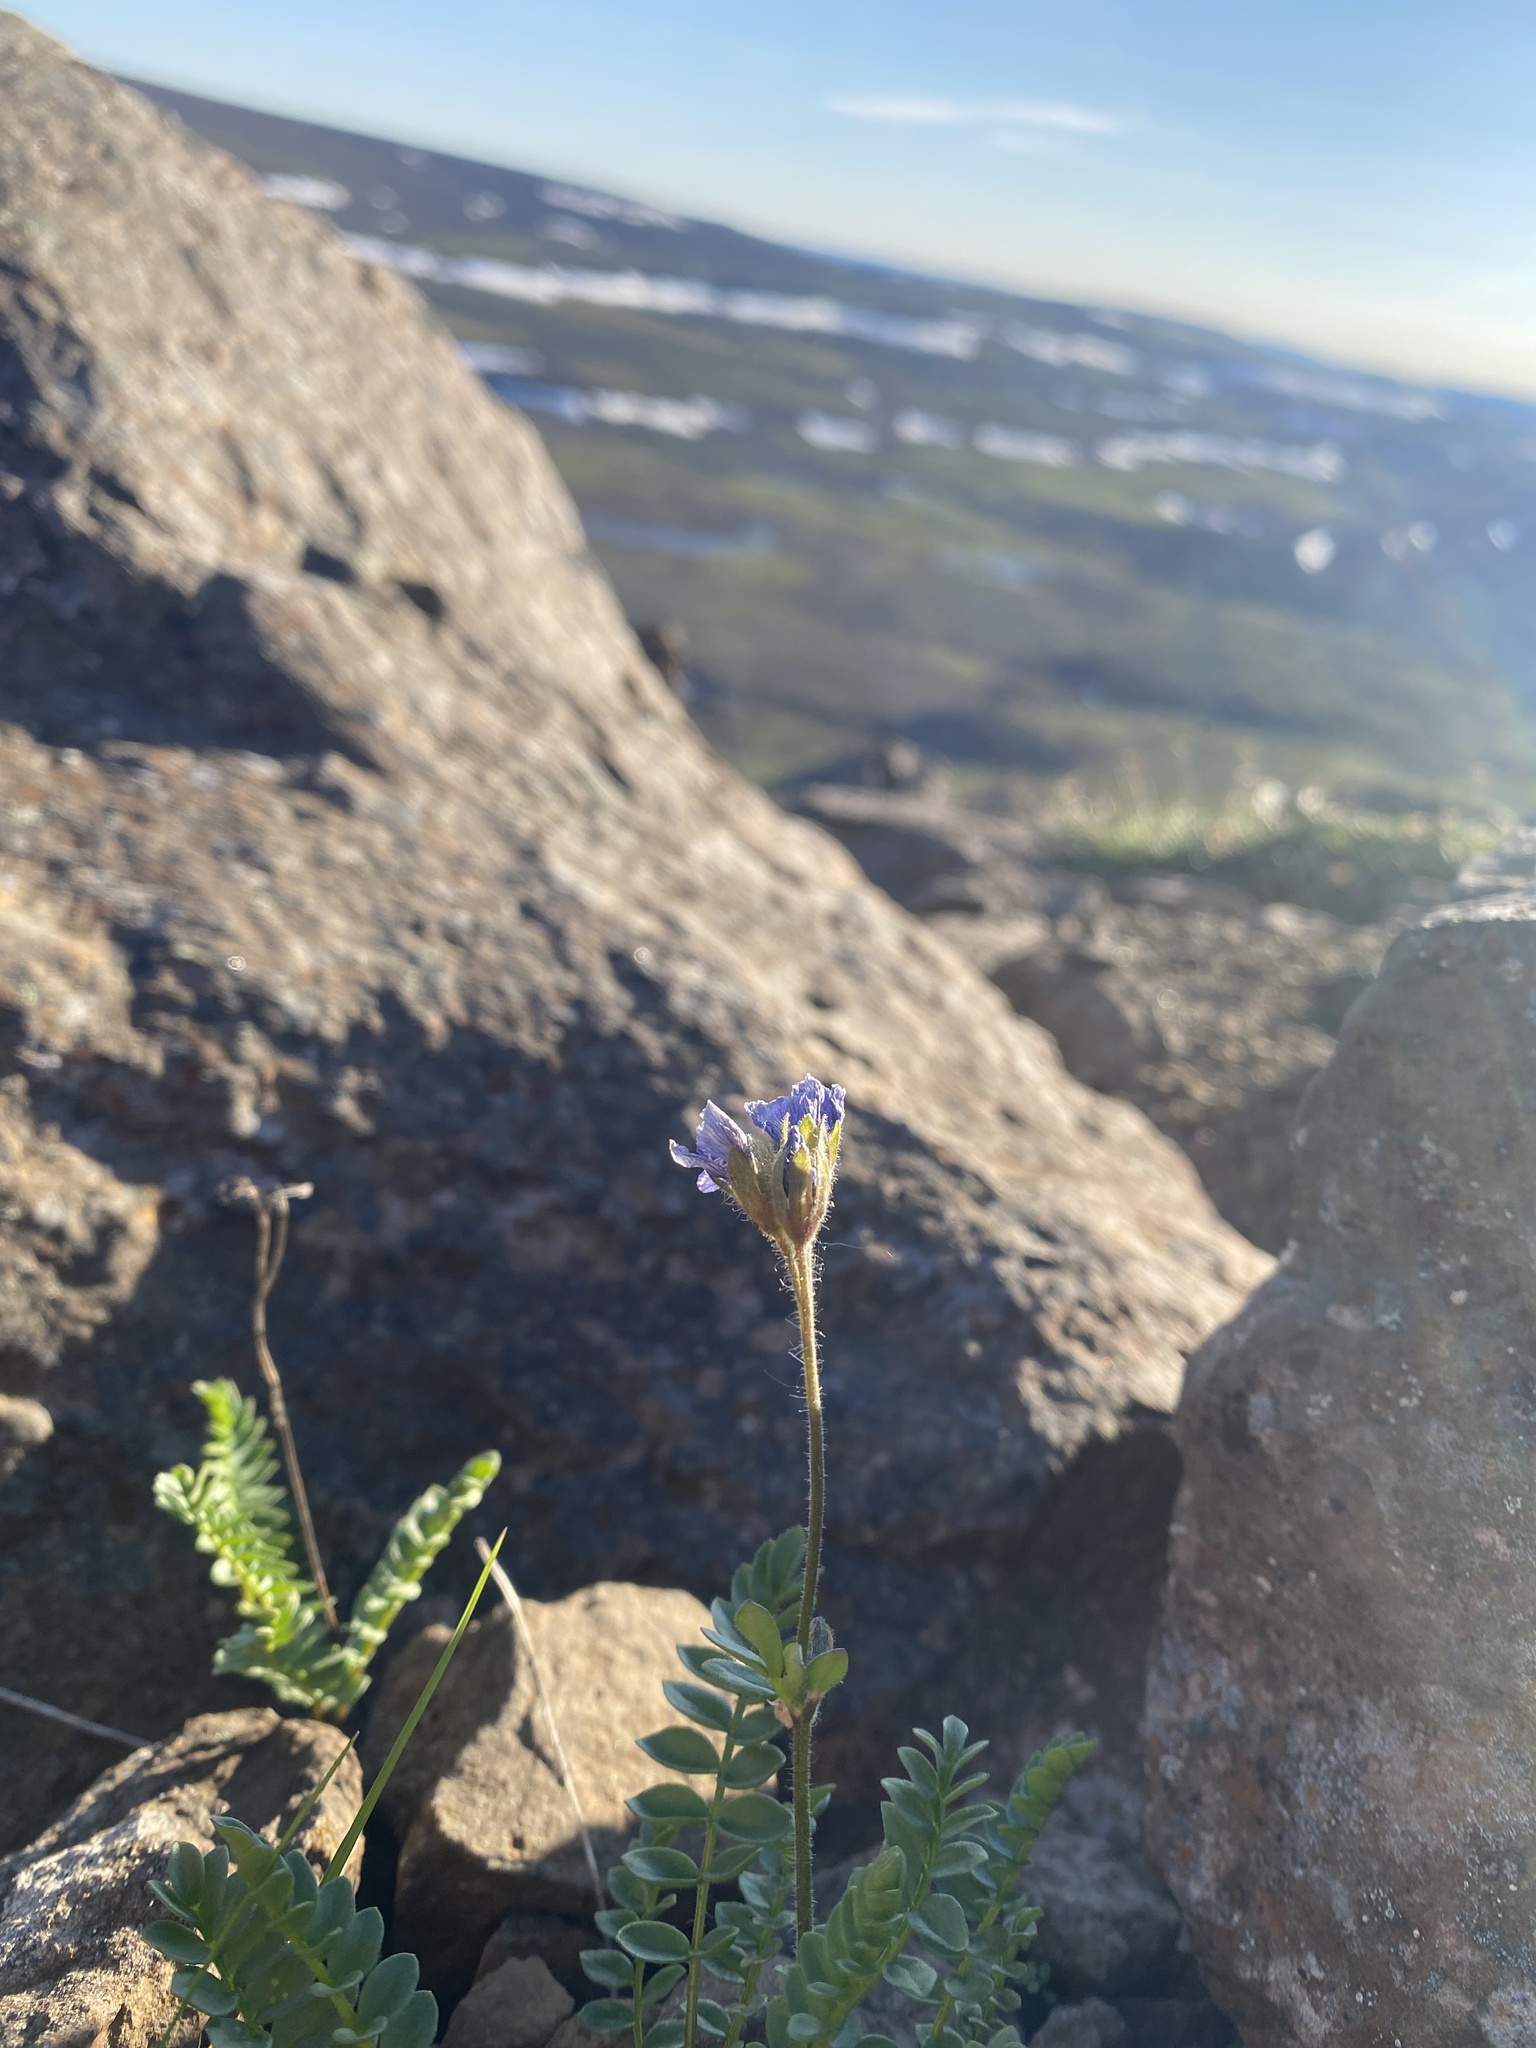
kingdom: Plantae
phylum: Tracheophyta
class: Magnoliopsida
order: Ericales
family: Polemoniaceae
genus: Polemonium
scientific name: Polemonium boreale
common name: Boreal jacob's-ladder
